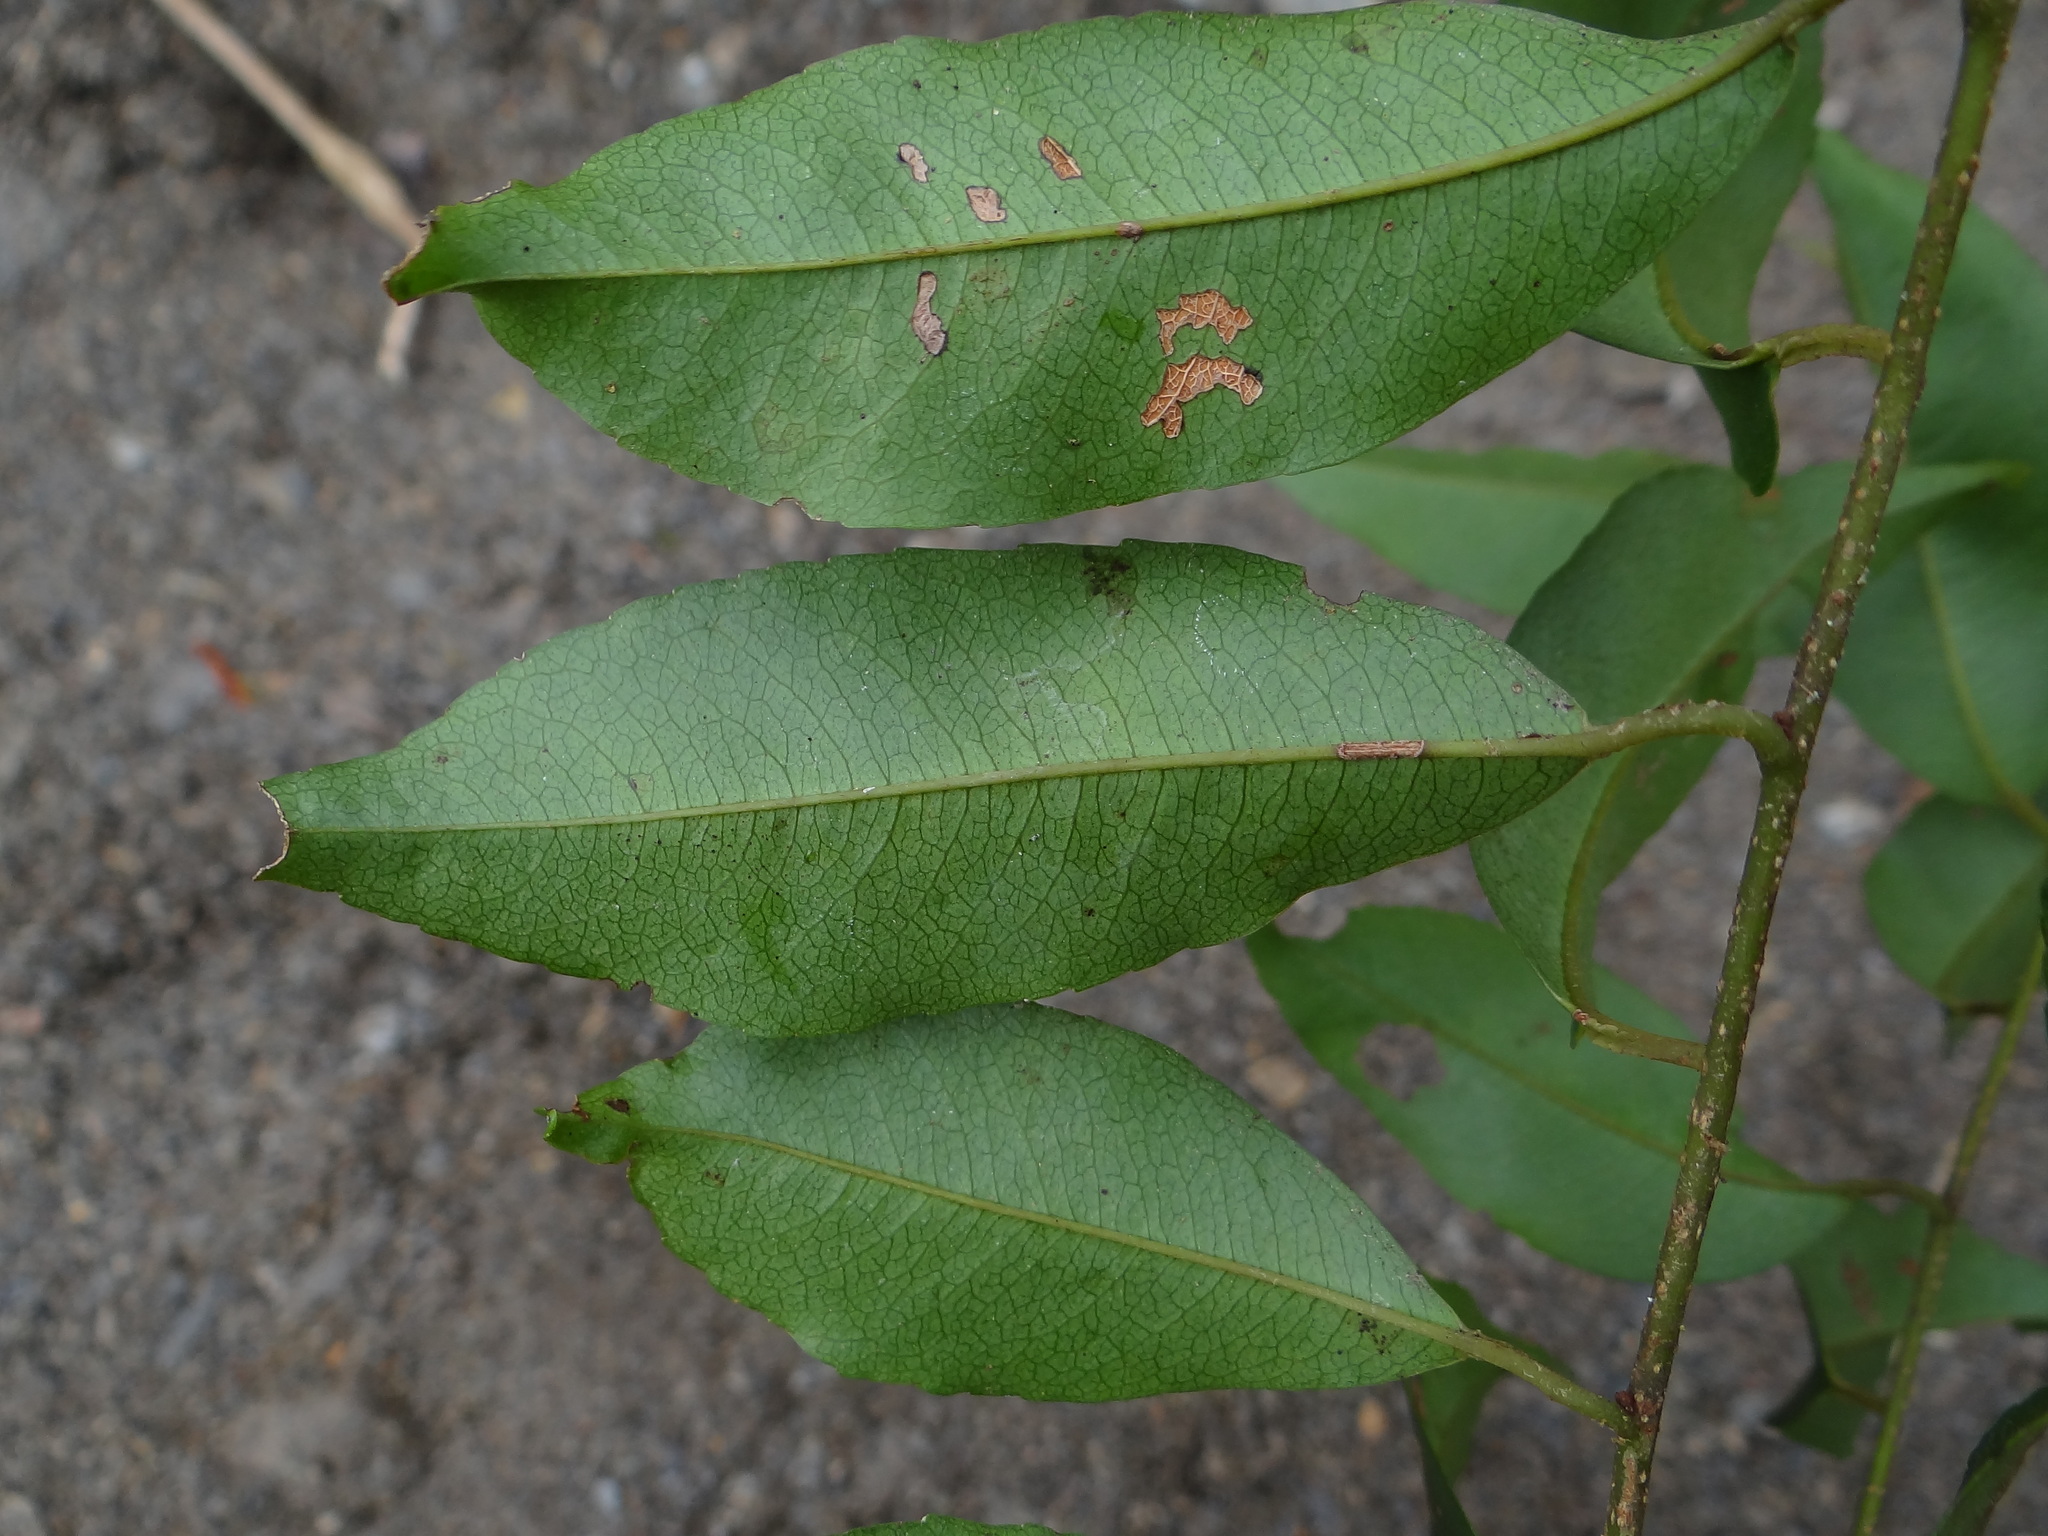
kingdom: Plantae
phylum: Tracheophyta
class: Magnoliopsida
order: Ericales
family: Primulaceae
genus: Embelia
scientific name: Embelia vestita
